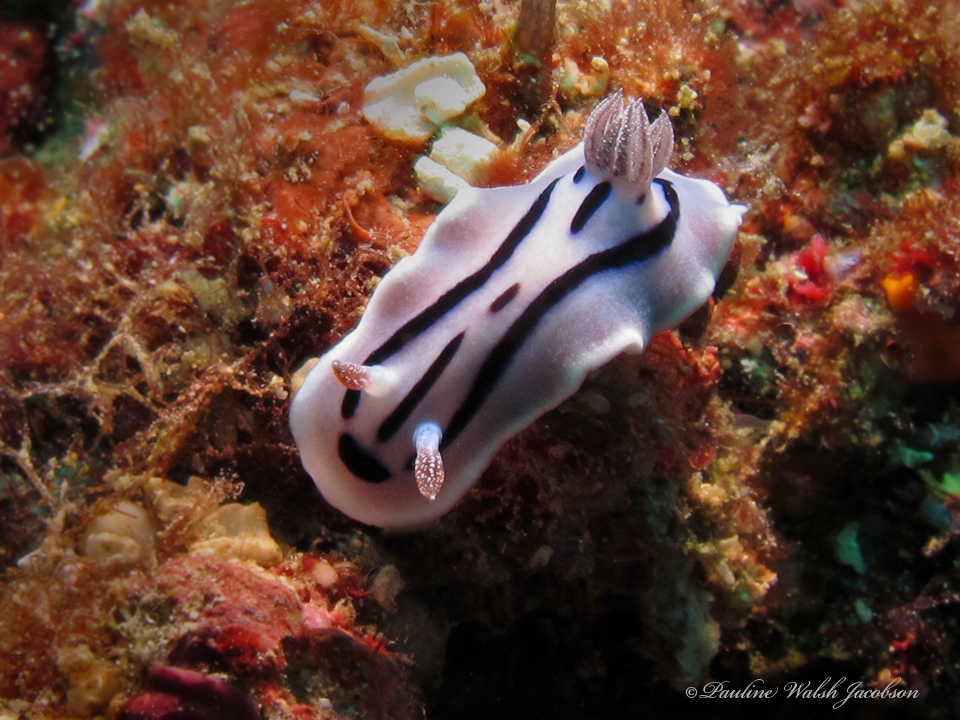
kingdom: Animalia
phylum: Mollusca
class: Gastropoda
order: Nudibranchia
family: Chromodorididae
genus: Chromodoris
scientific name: Chromodoris willani
